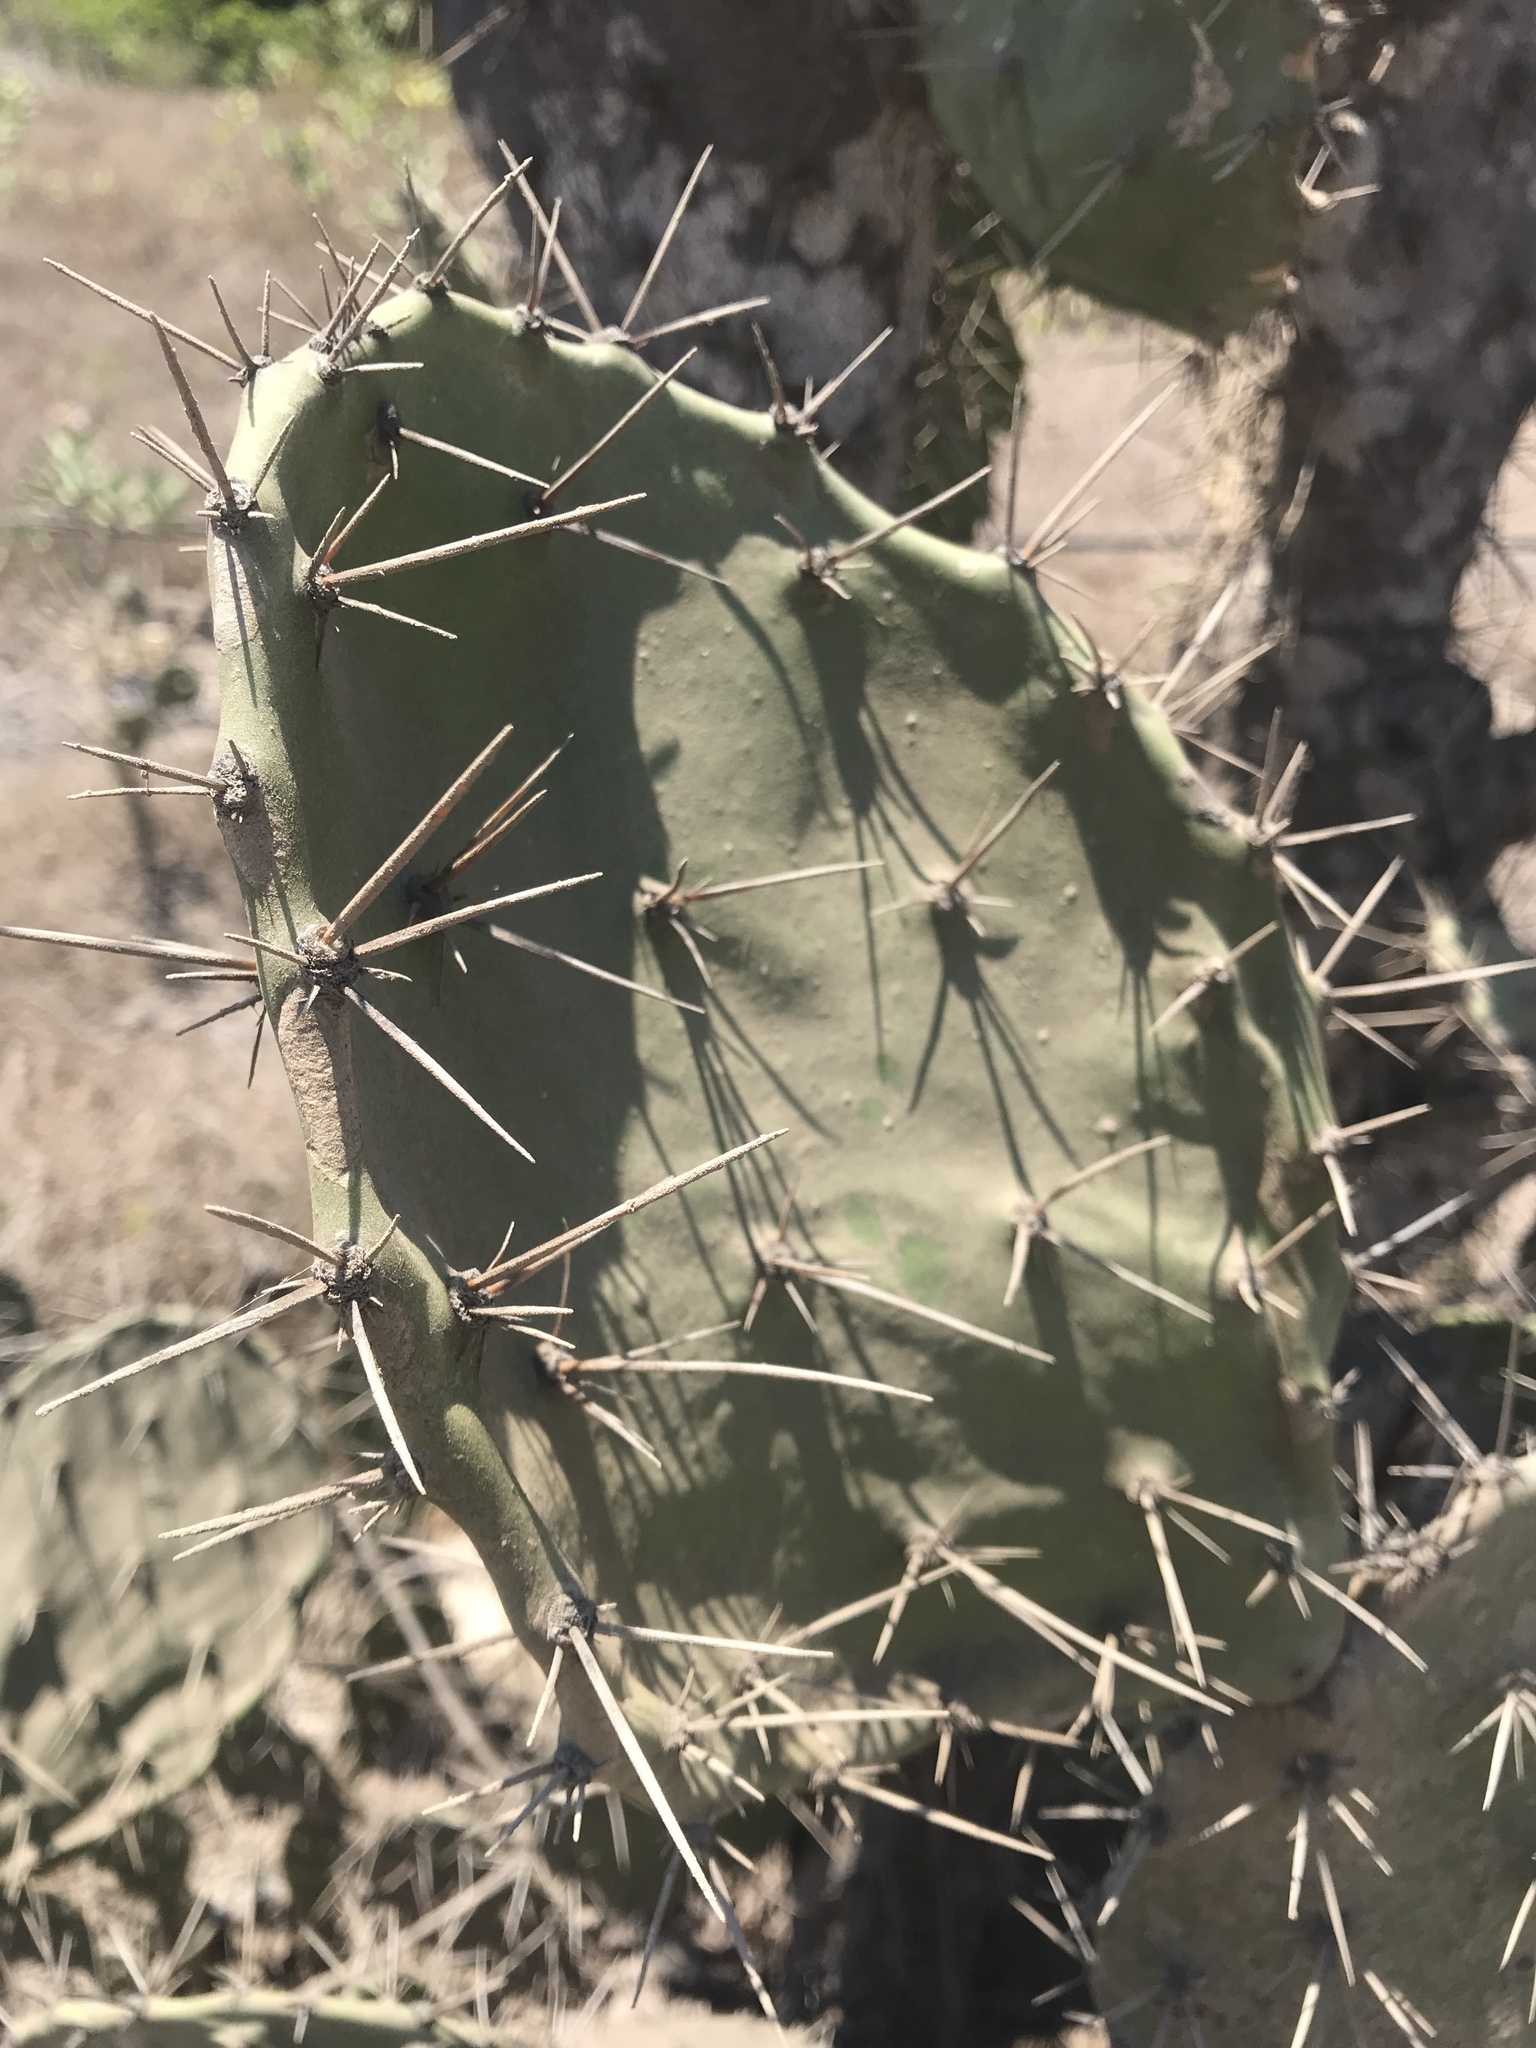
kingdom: Plantae
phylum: Tracheophyta
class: Magnoliopsida
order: Caryophyllales
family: Cactaceae
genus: Opuntia
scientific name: Opuntia elatior
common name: Tuna
